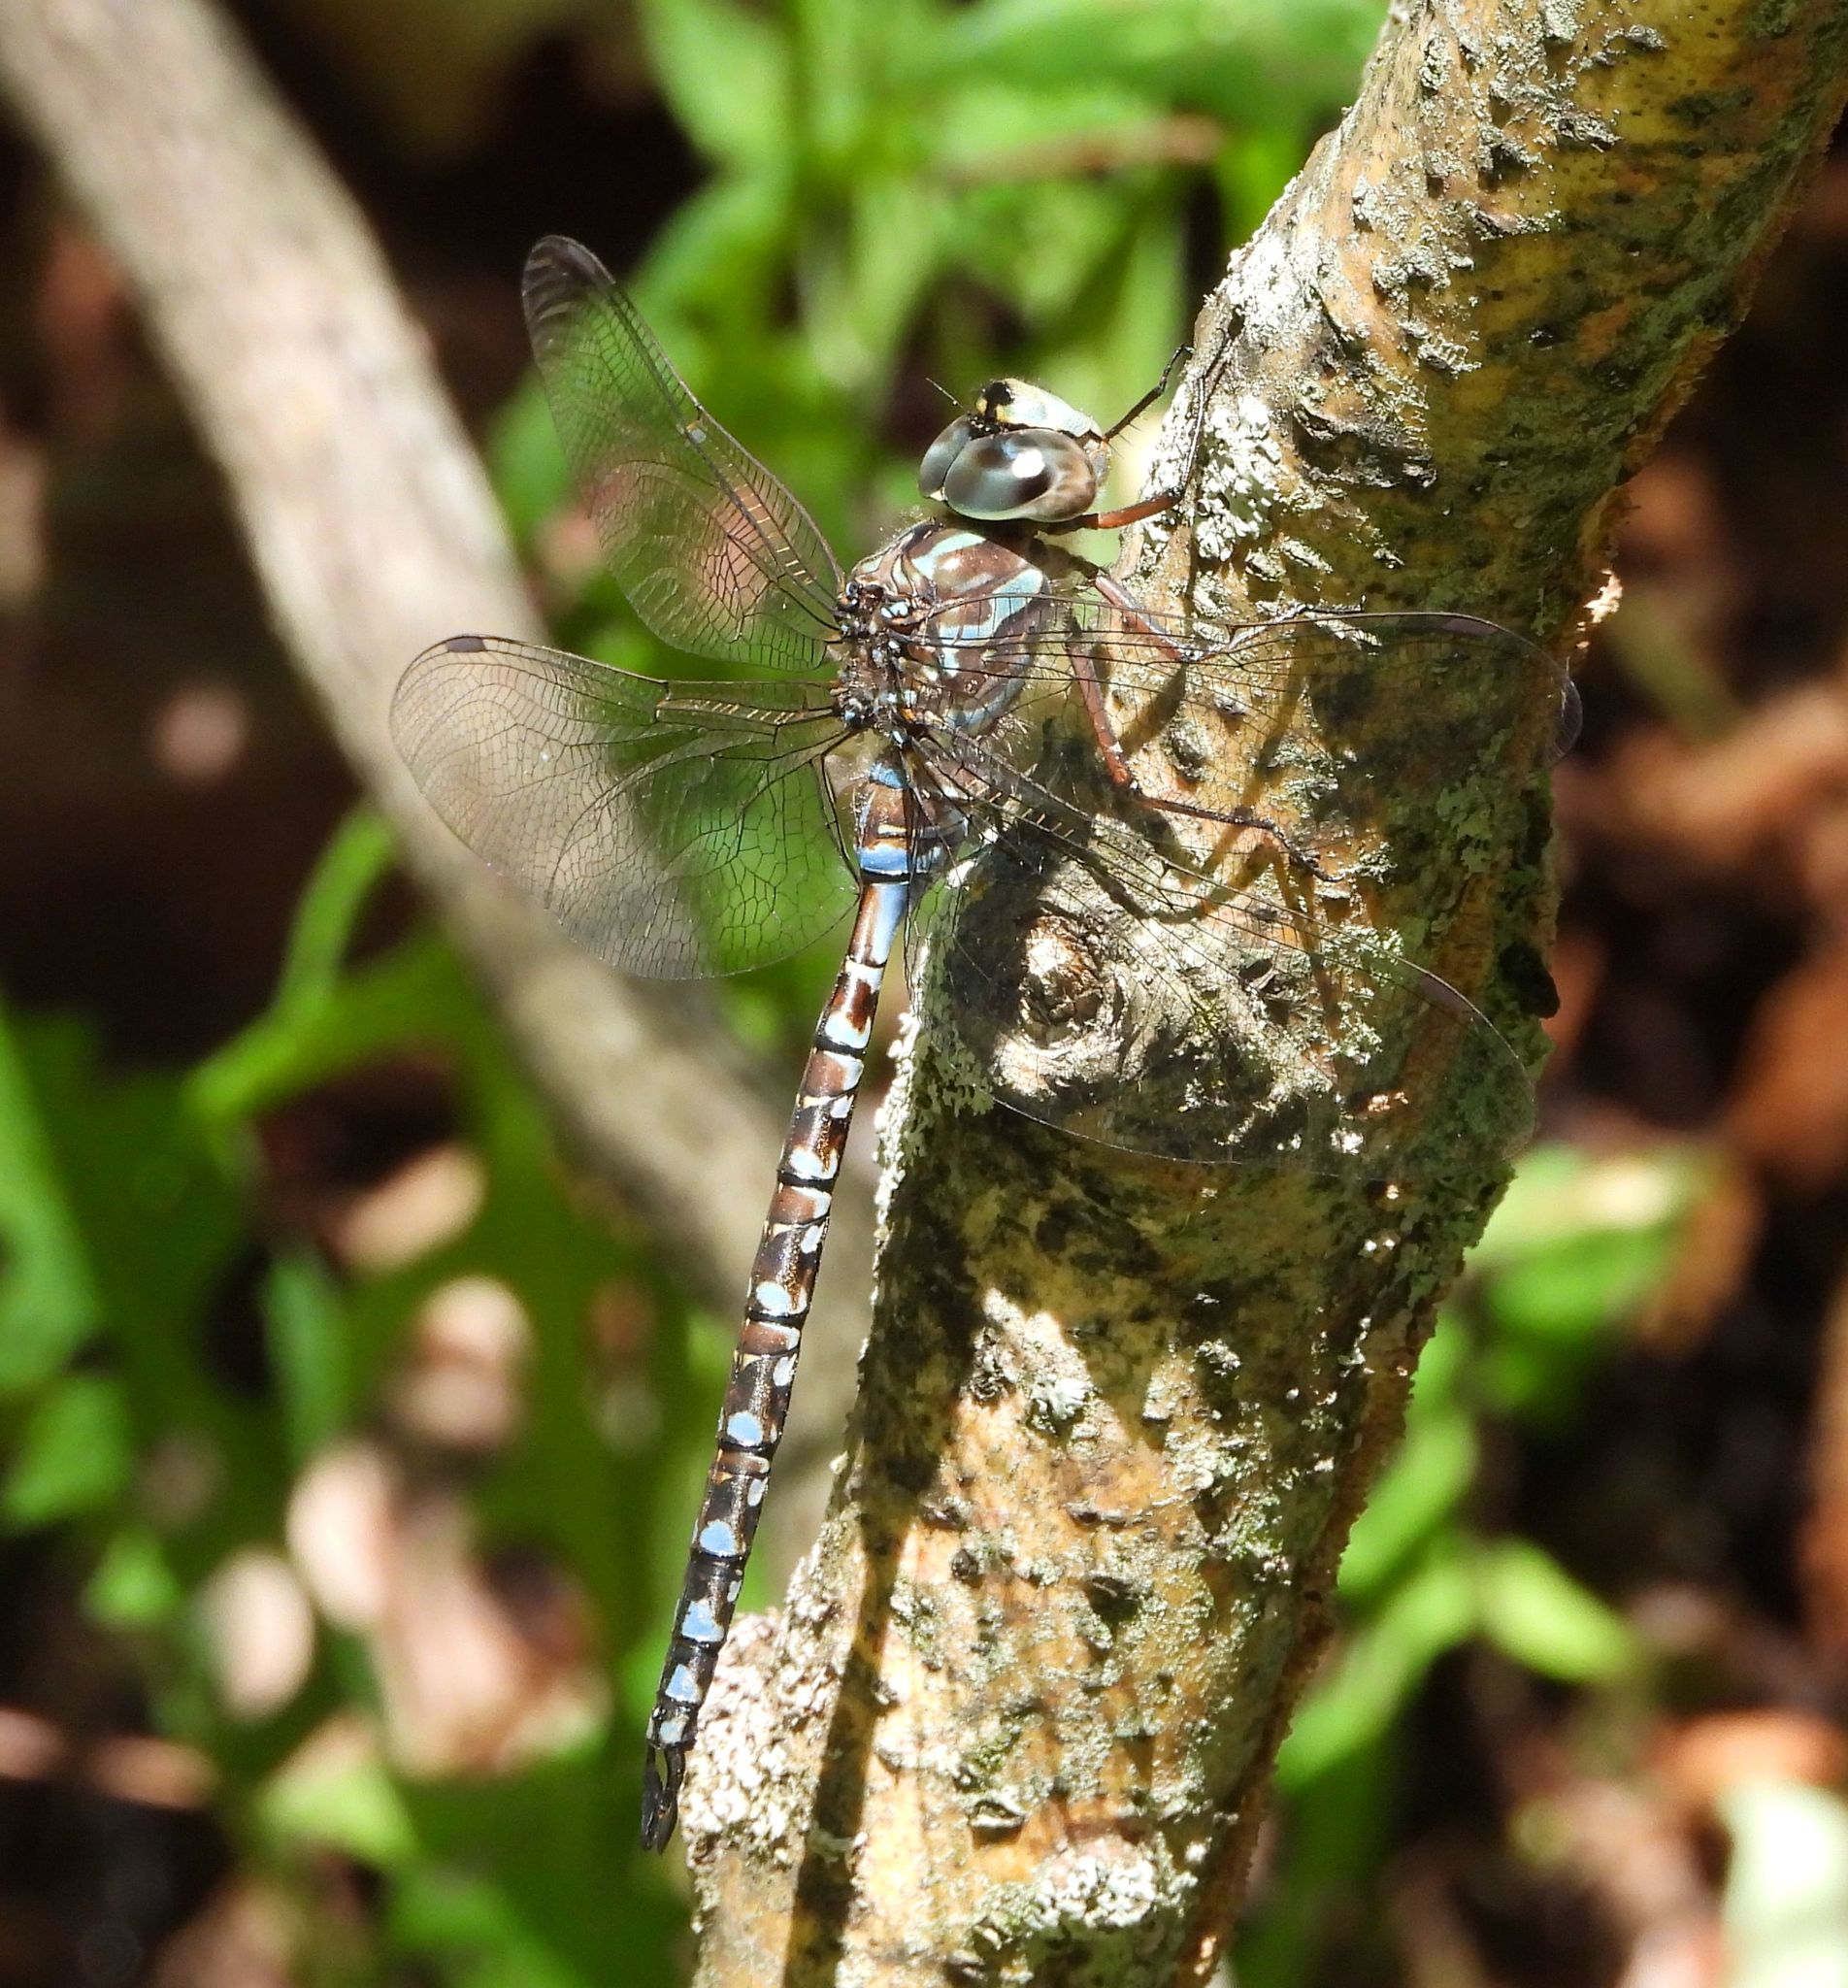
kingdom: Animalia
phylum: Arthropoda
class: Insecta
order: Odonata
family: Aeshnidae
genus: Aeshna
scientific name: Aeshna canadensis
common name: Canada darner
